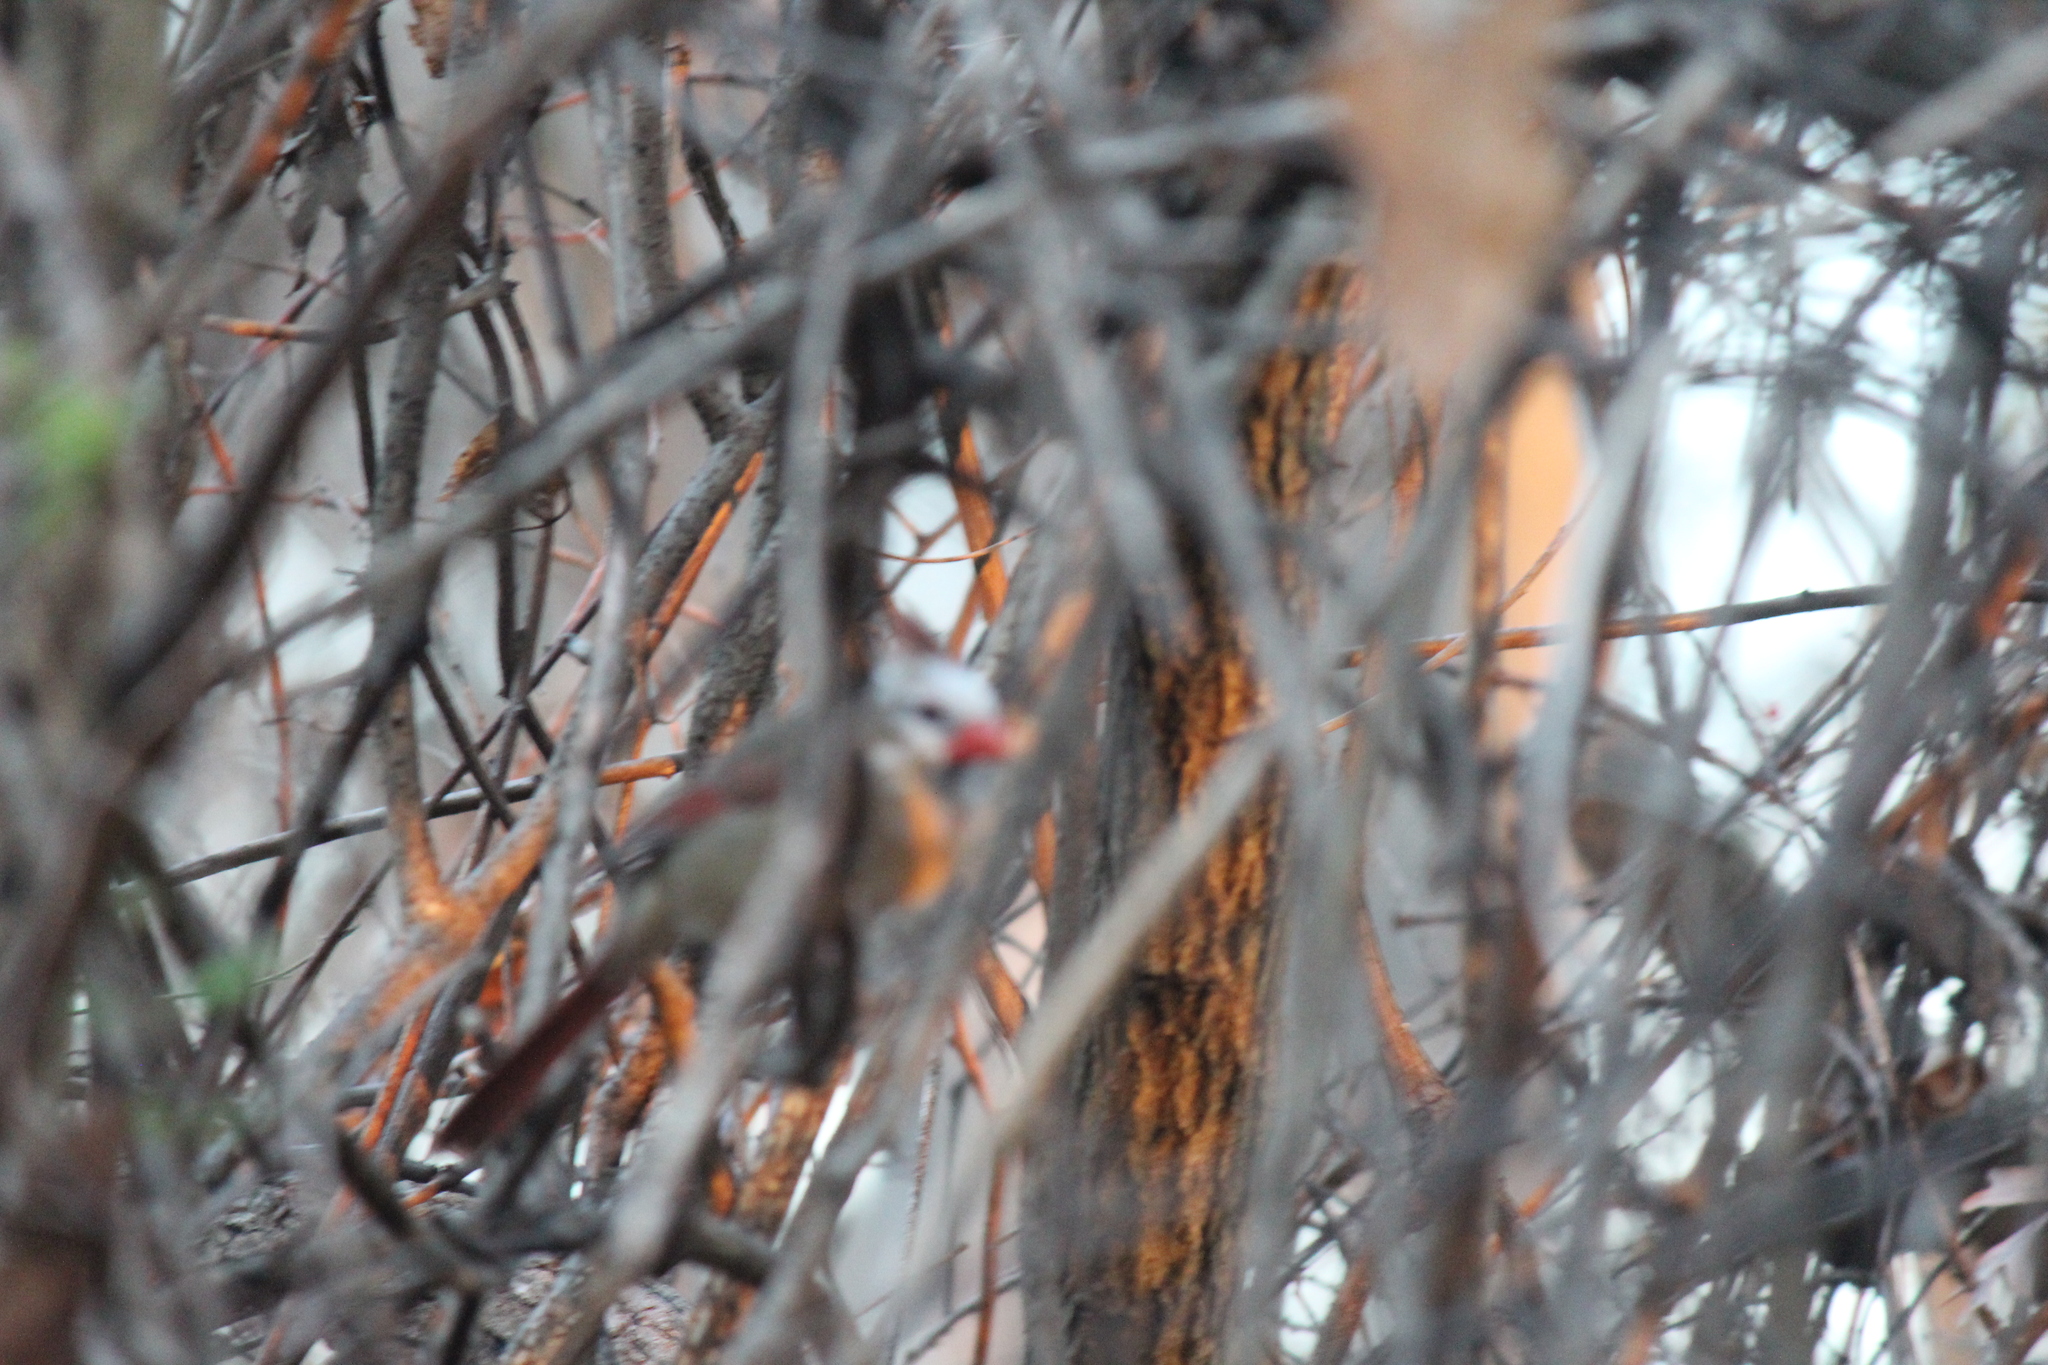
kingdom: Animalia
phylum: Chordata
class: Aves
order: Passeriformes
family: Cardinalidae
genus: Cardinalis
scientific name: Cardinalis cardinalis
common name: Northern cardinal
